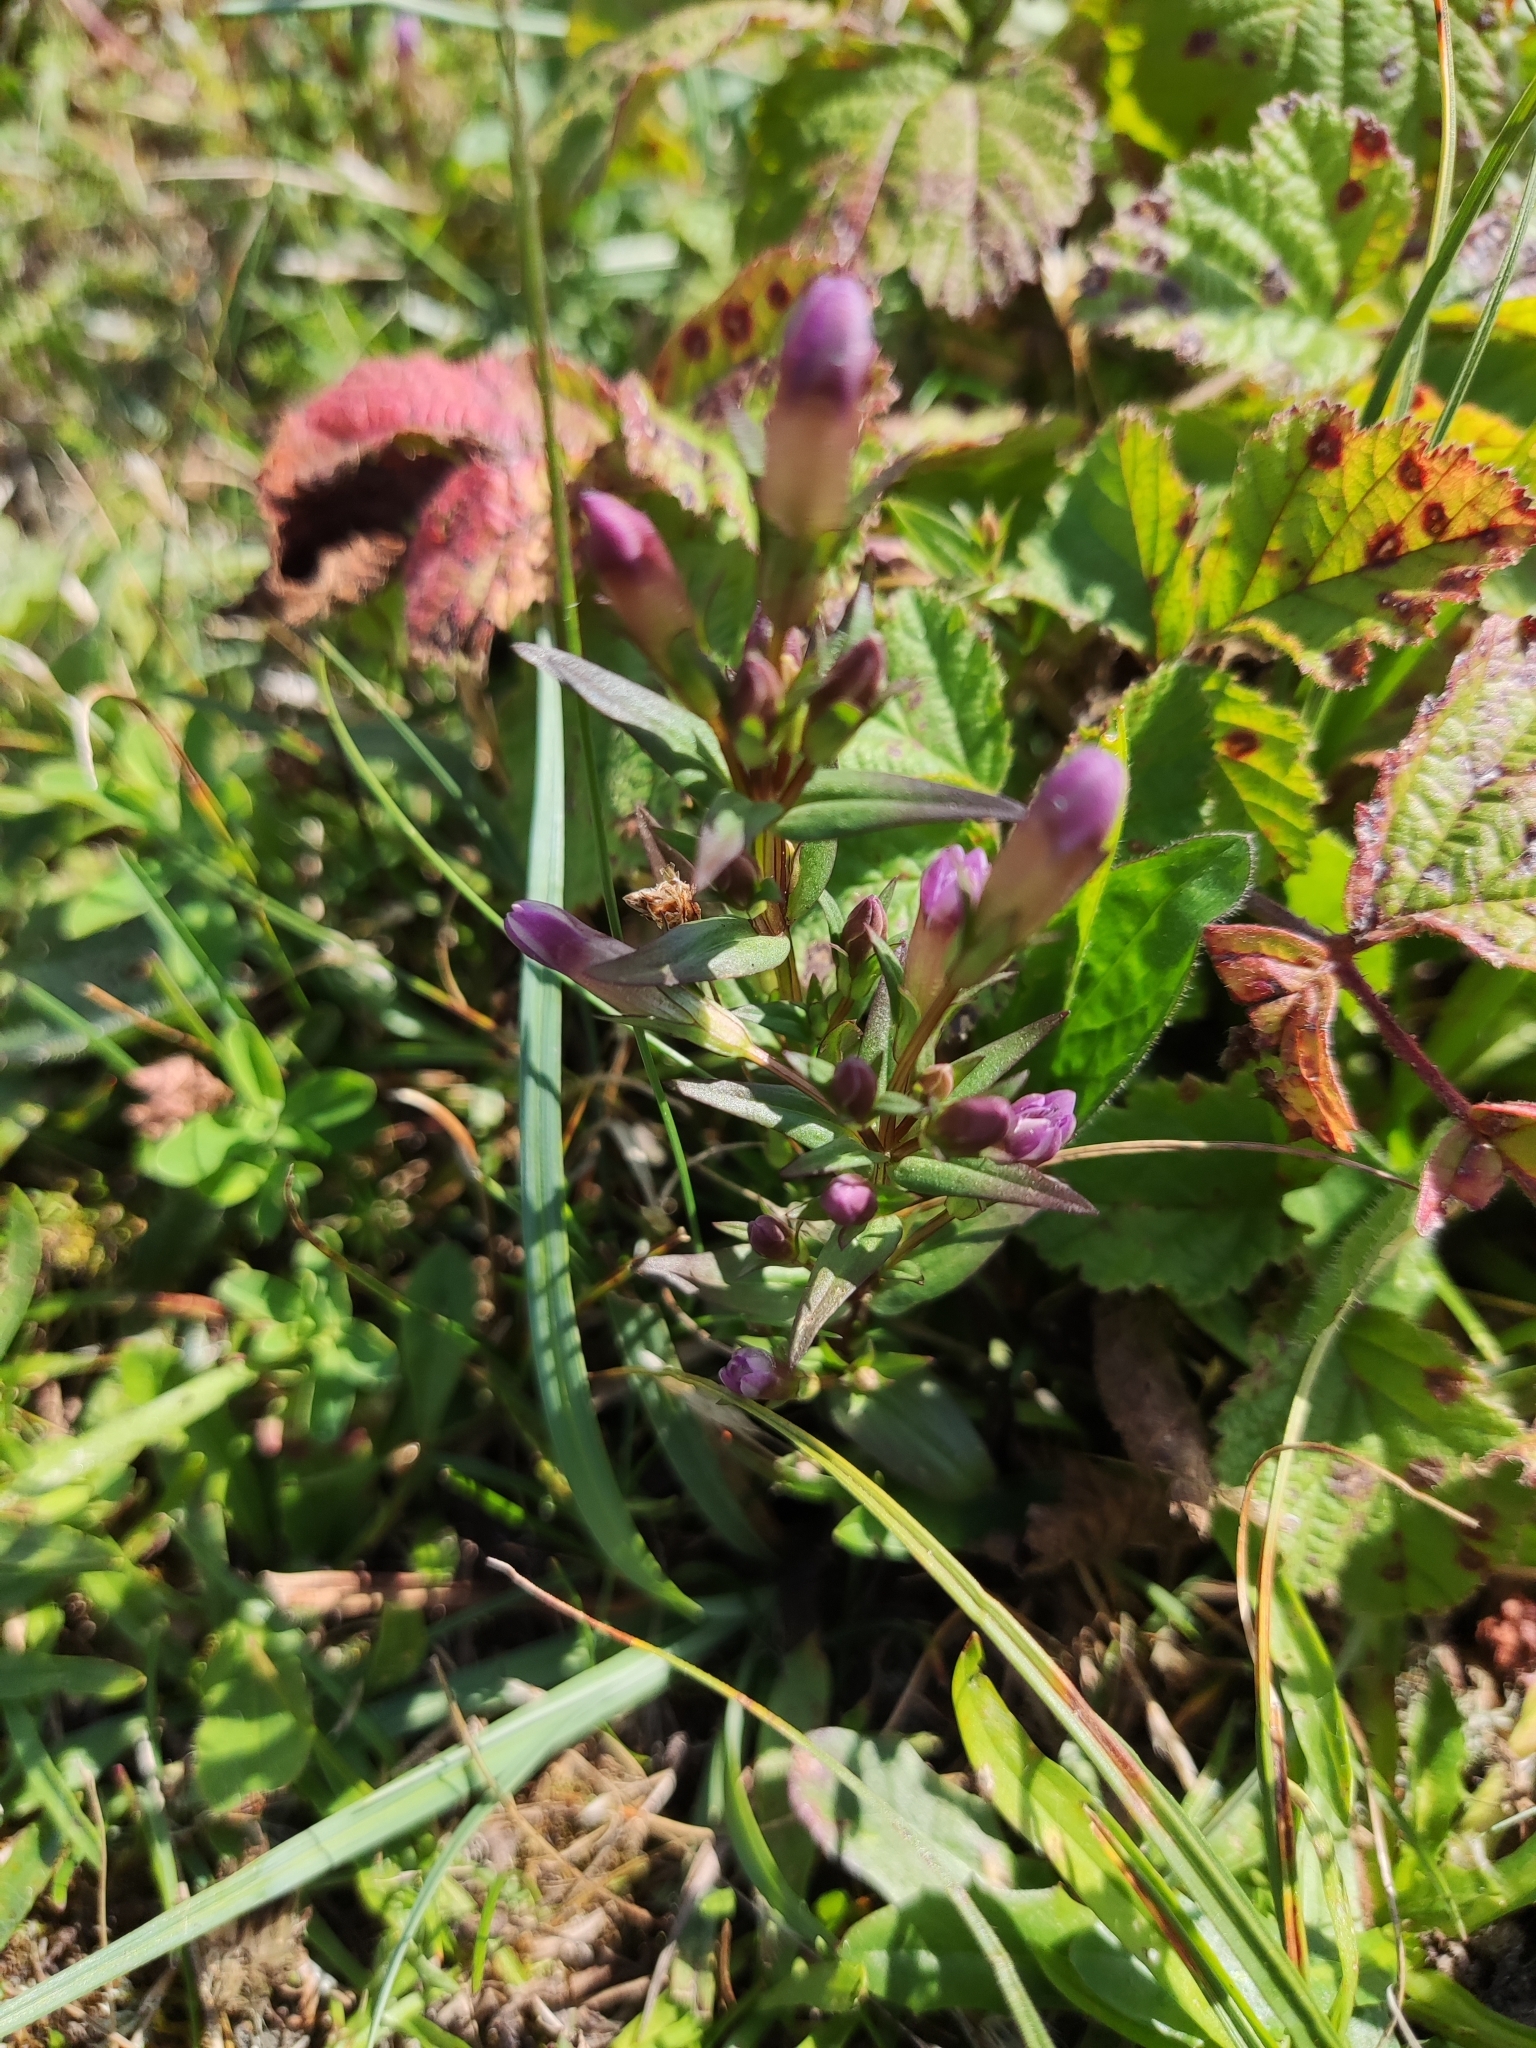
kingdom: Plantae
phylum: Tracheophyta
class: Magnoliopsida
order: Gentianales
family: Gentianaceae
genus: Gentianella
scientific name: Gentianella uliginosa
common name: Dune gentian
